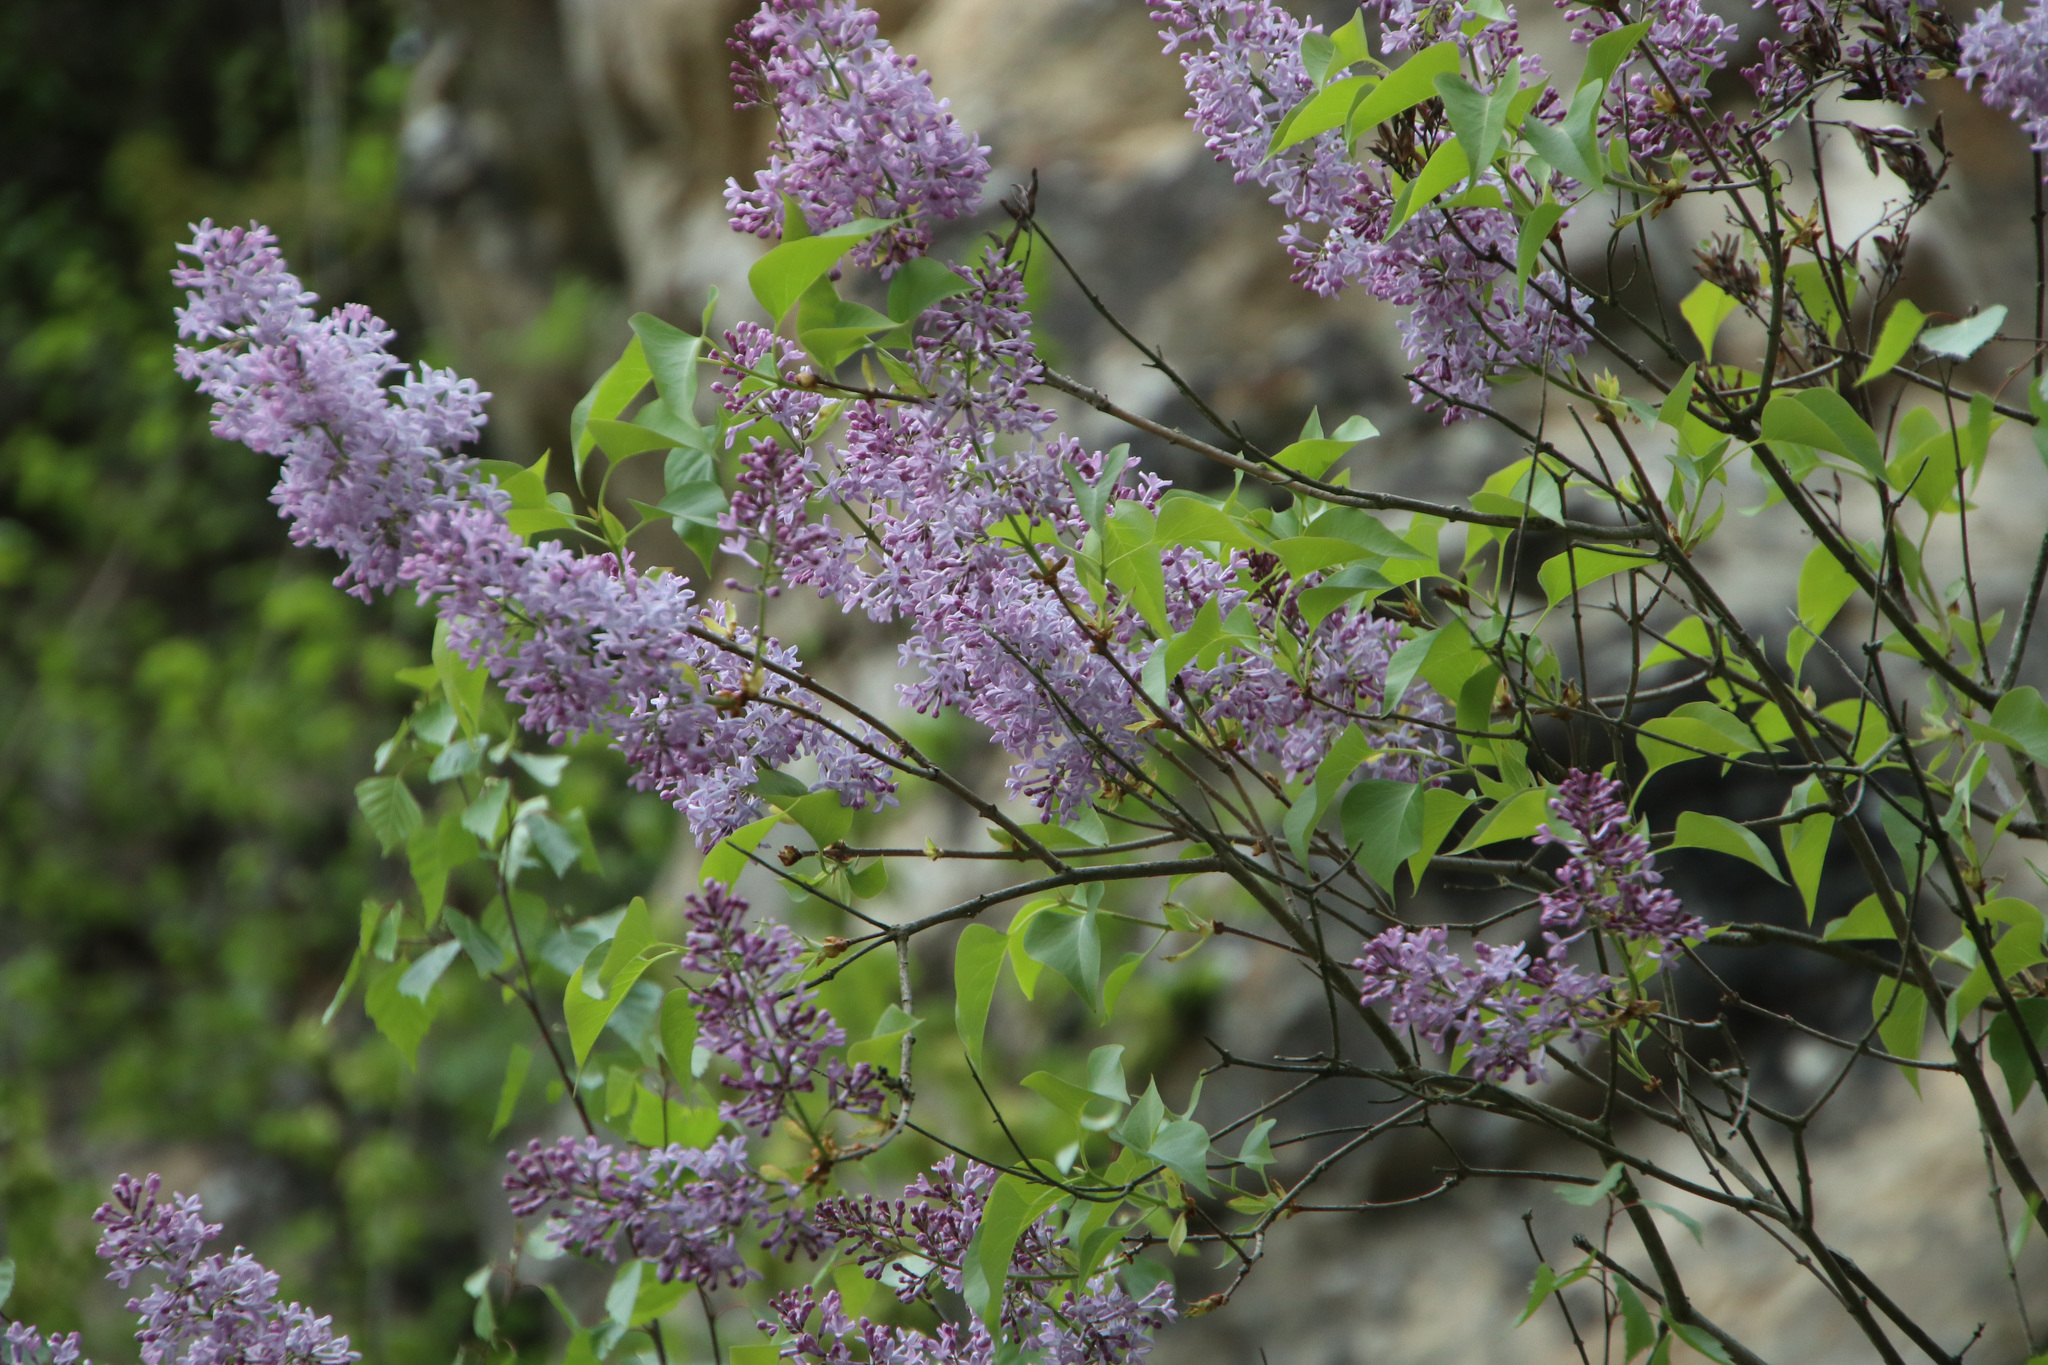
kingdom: Plantae
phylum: Tracheophyta
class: Magnoliopsida
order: Lamiales
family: Oleaceae
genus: Syringa
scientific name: Syringa vulgaris
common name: Common lilac
